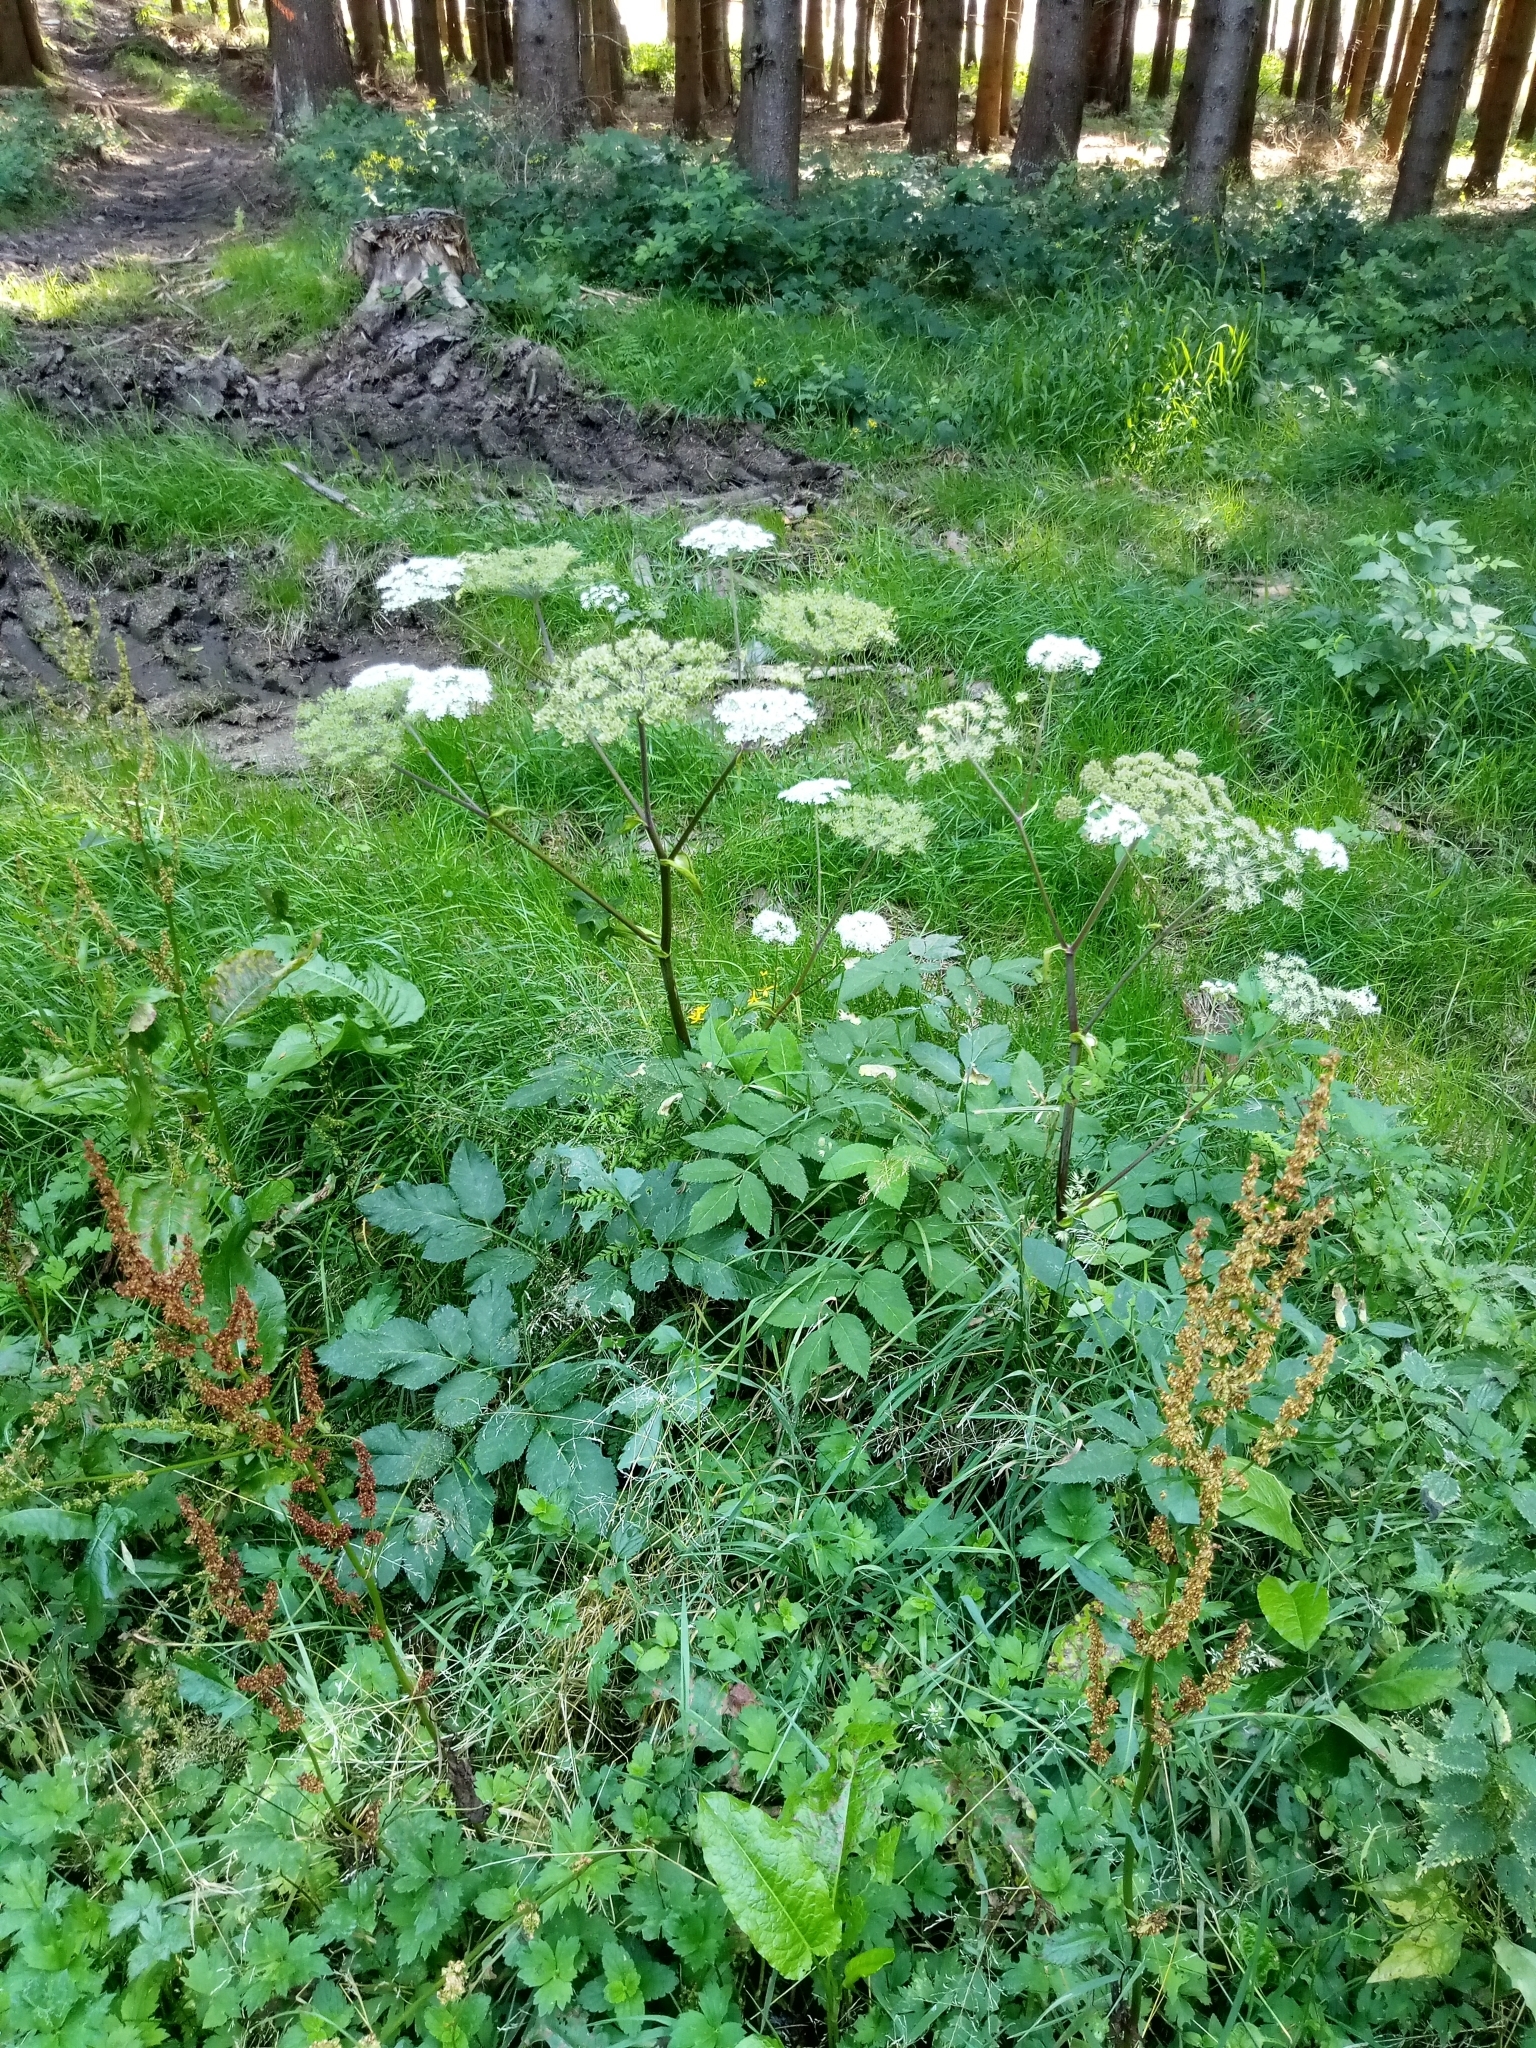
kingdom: Plantae
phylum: Tracheophyta
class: Magnoliopsida
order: Apiales
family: Apiaceae
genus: Angelica
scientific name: Angelica sylvestris
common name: Wild angelica
